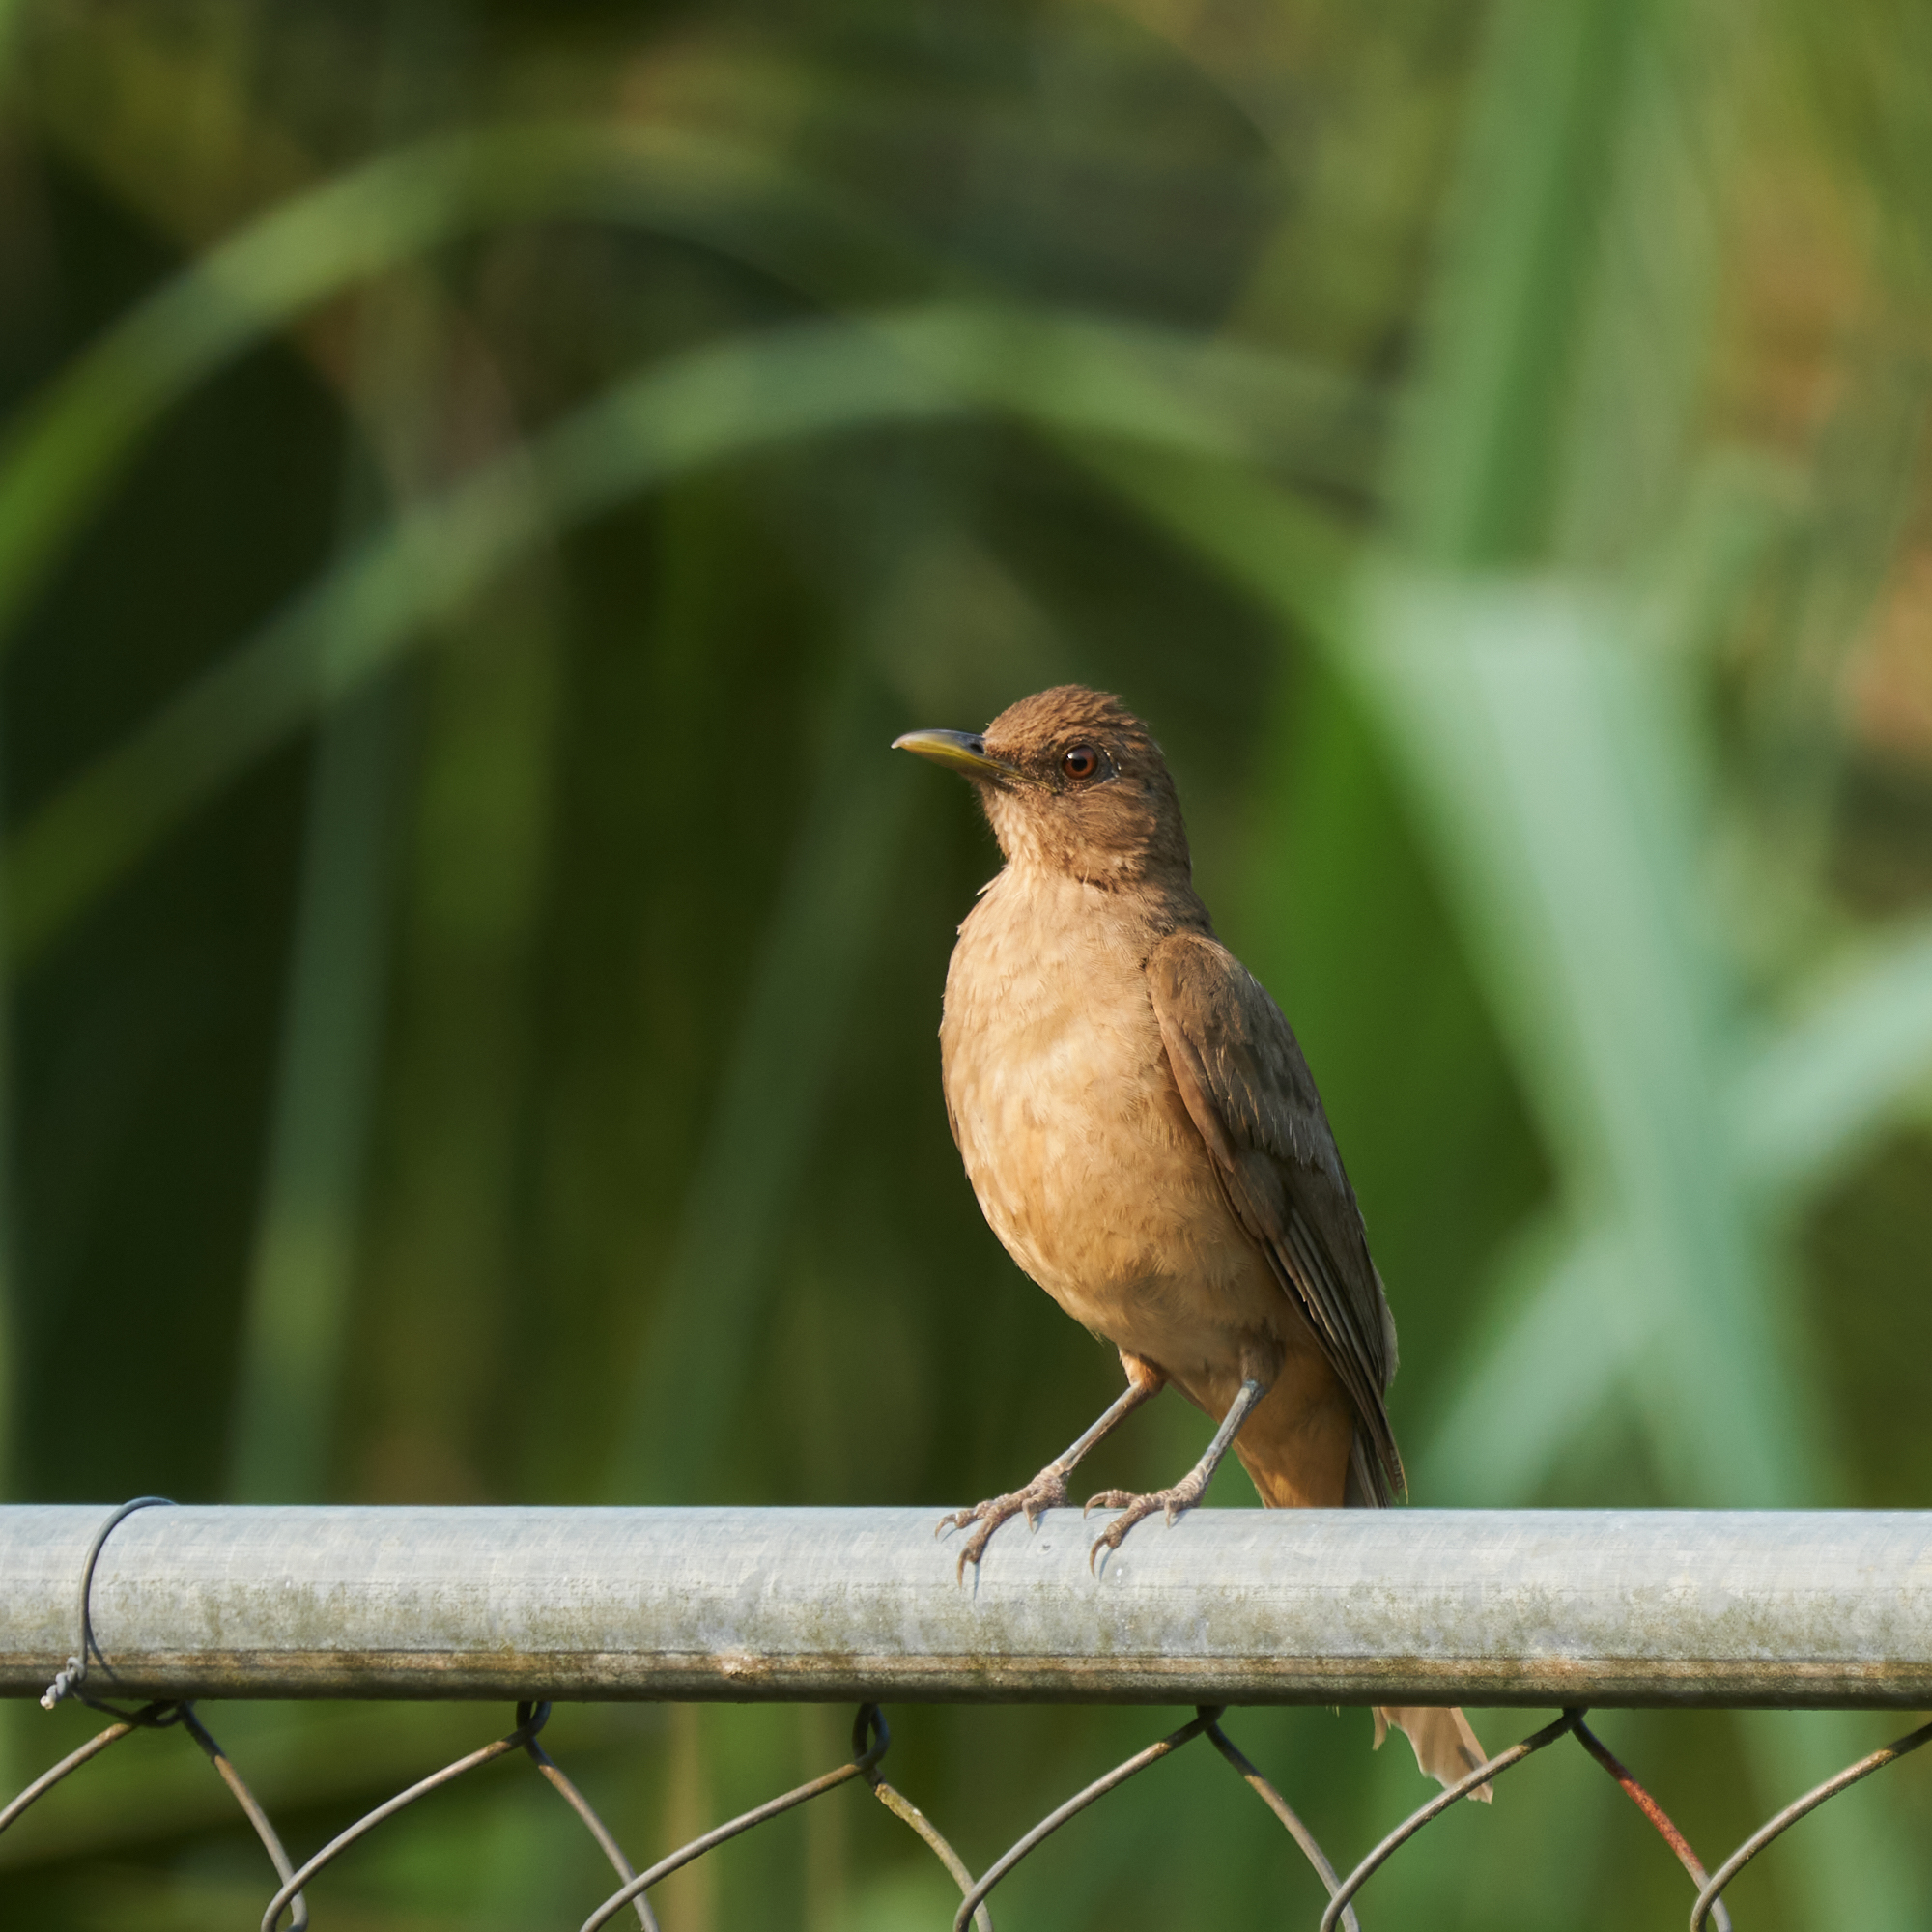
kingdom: Animalia
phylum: Chordata
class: Aves
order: Passeriformes
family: Turdidae
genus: Turdus
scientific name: Turdus grayi
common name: Clay-colored thrush
